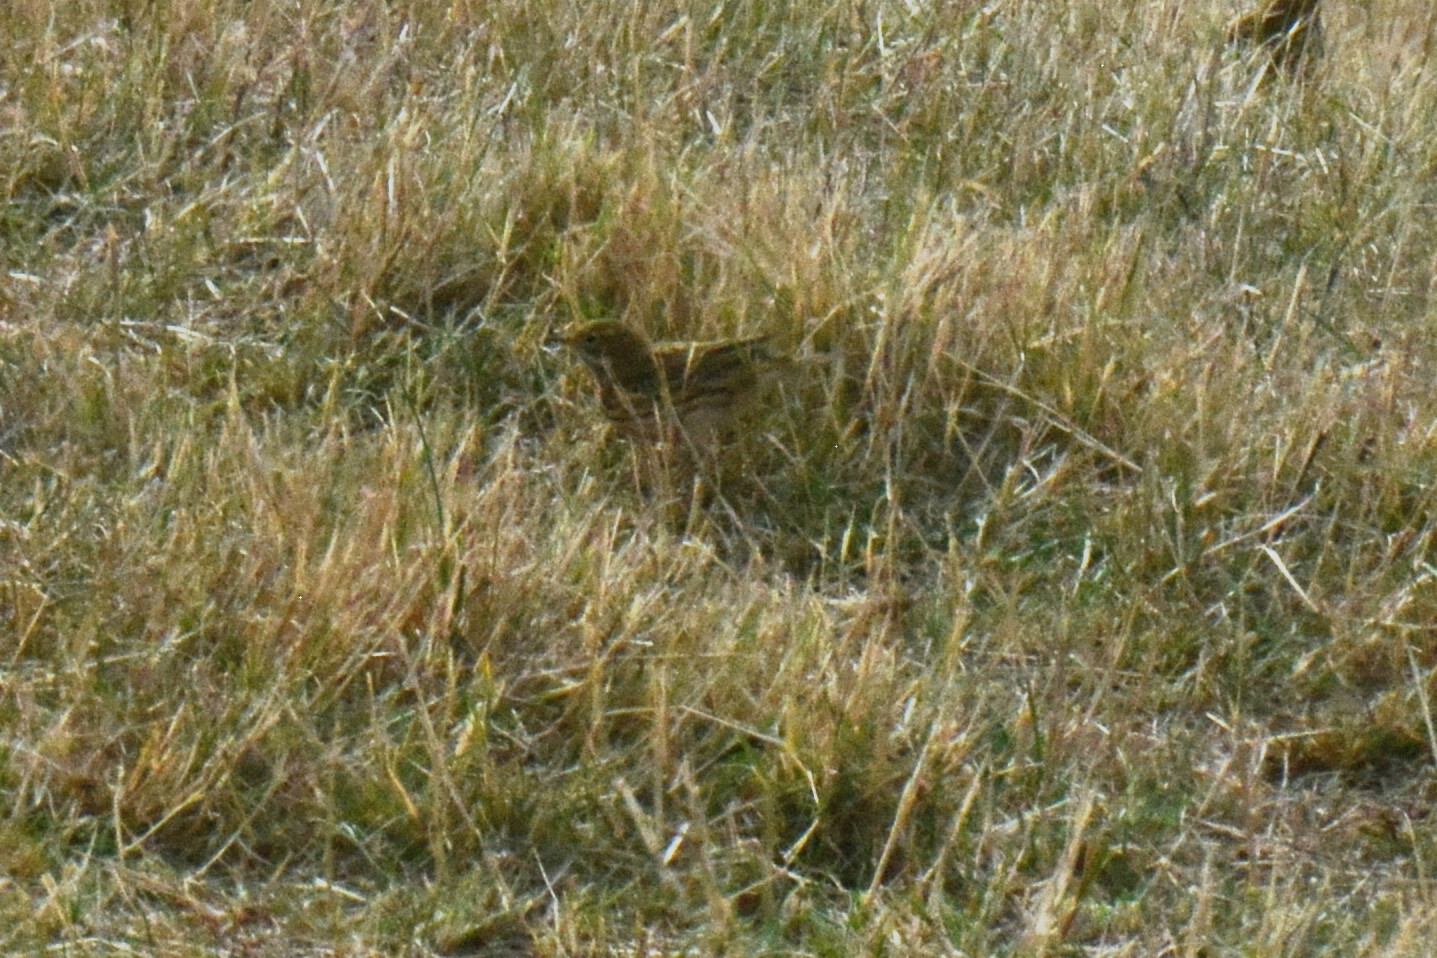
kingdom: Animalia
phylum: Chordata
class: Aves
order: Passeriformes
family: Motacillidae
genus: Anthus
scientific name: Anthus pratensis
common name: Meadow pipit
